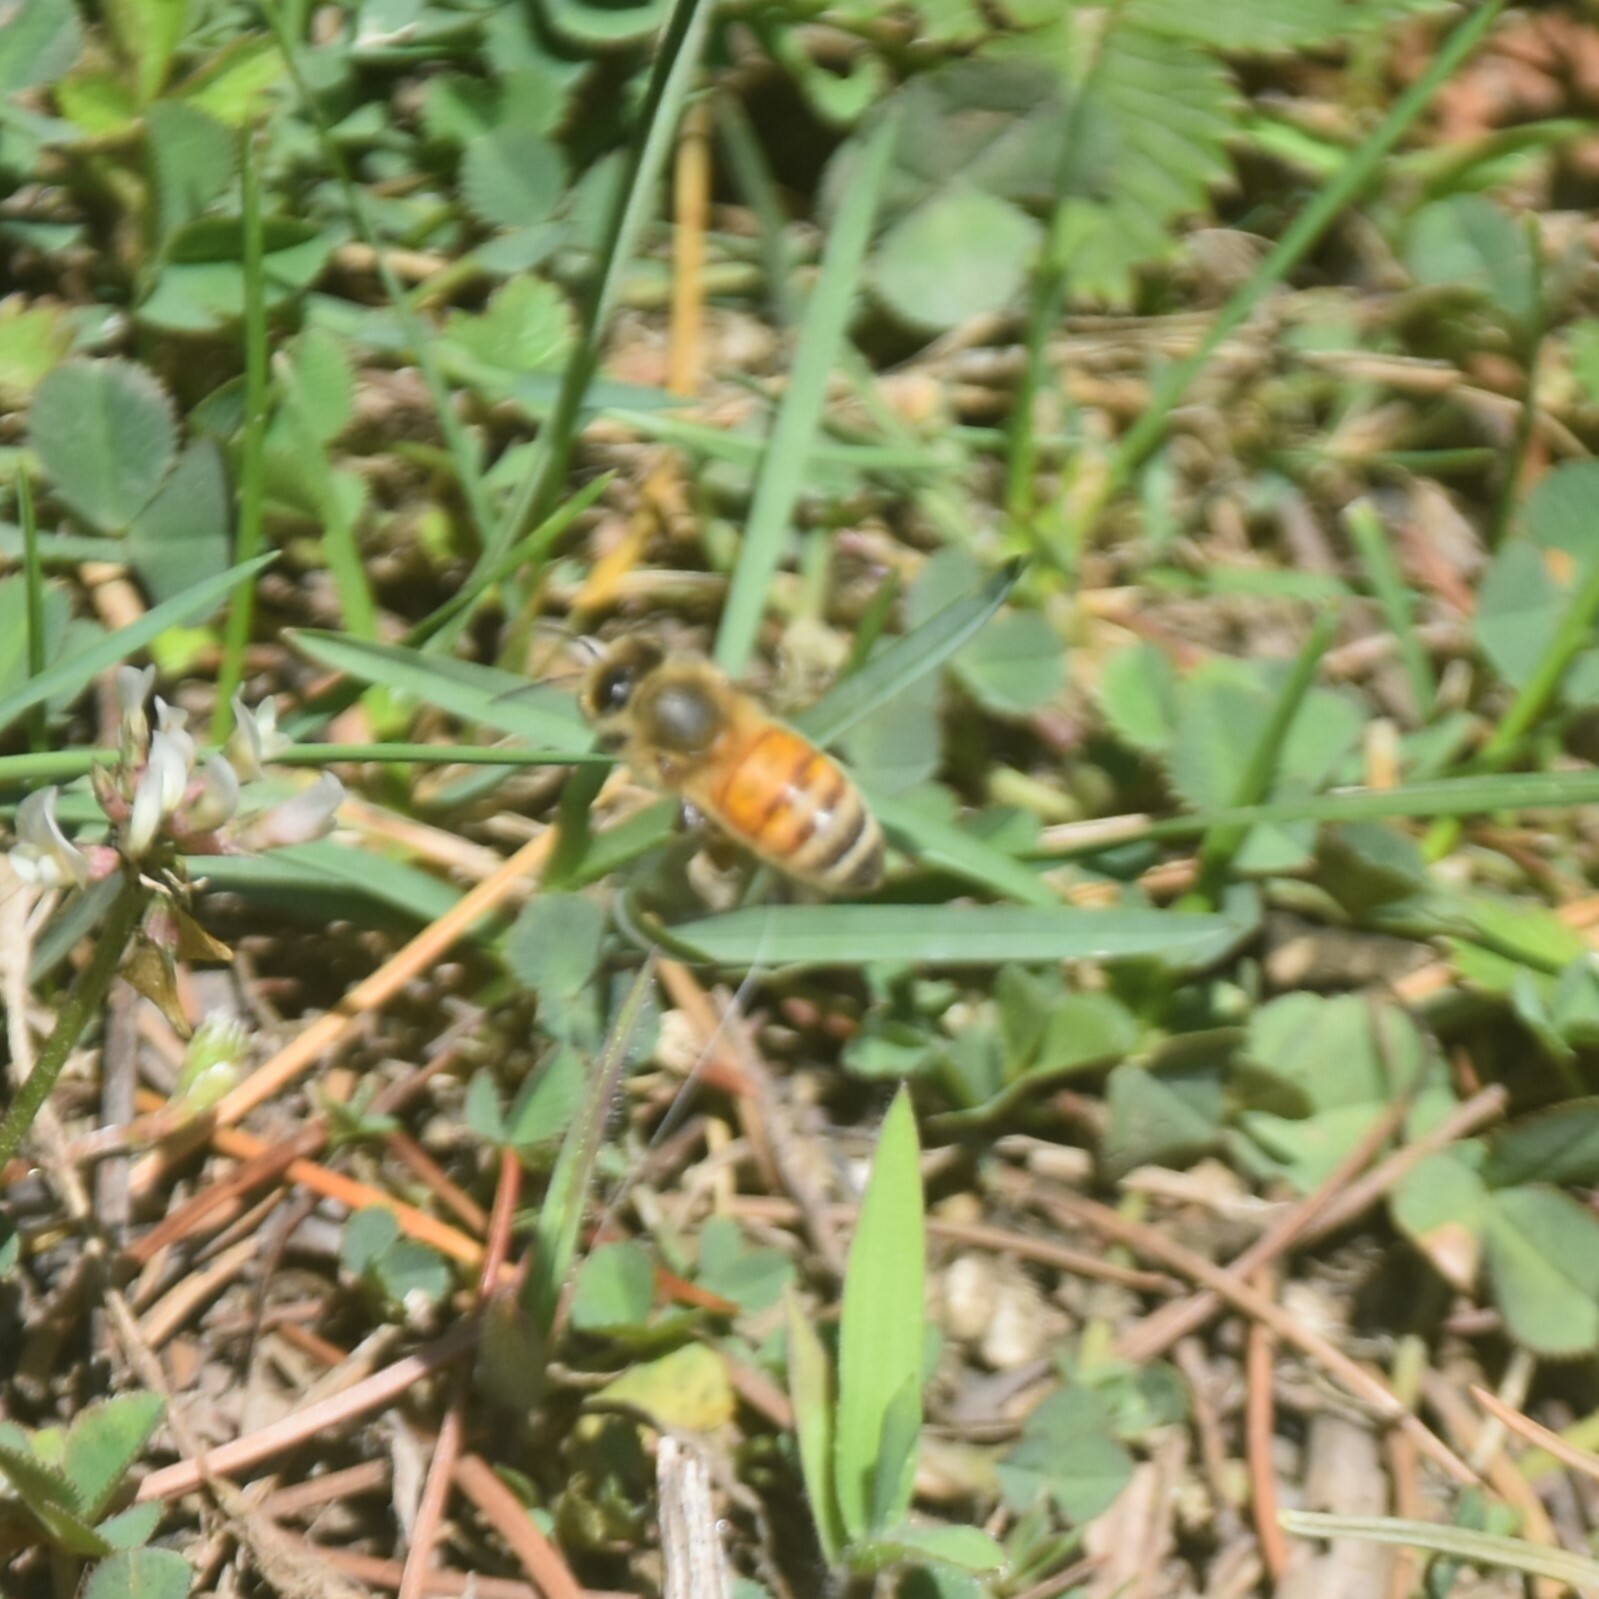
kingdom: Animalia
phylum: Arthropoda
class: Insecta
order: Hymenoptera
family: Apidae
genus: Apis
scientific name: Apis mellifera
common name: Honey bee
